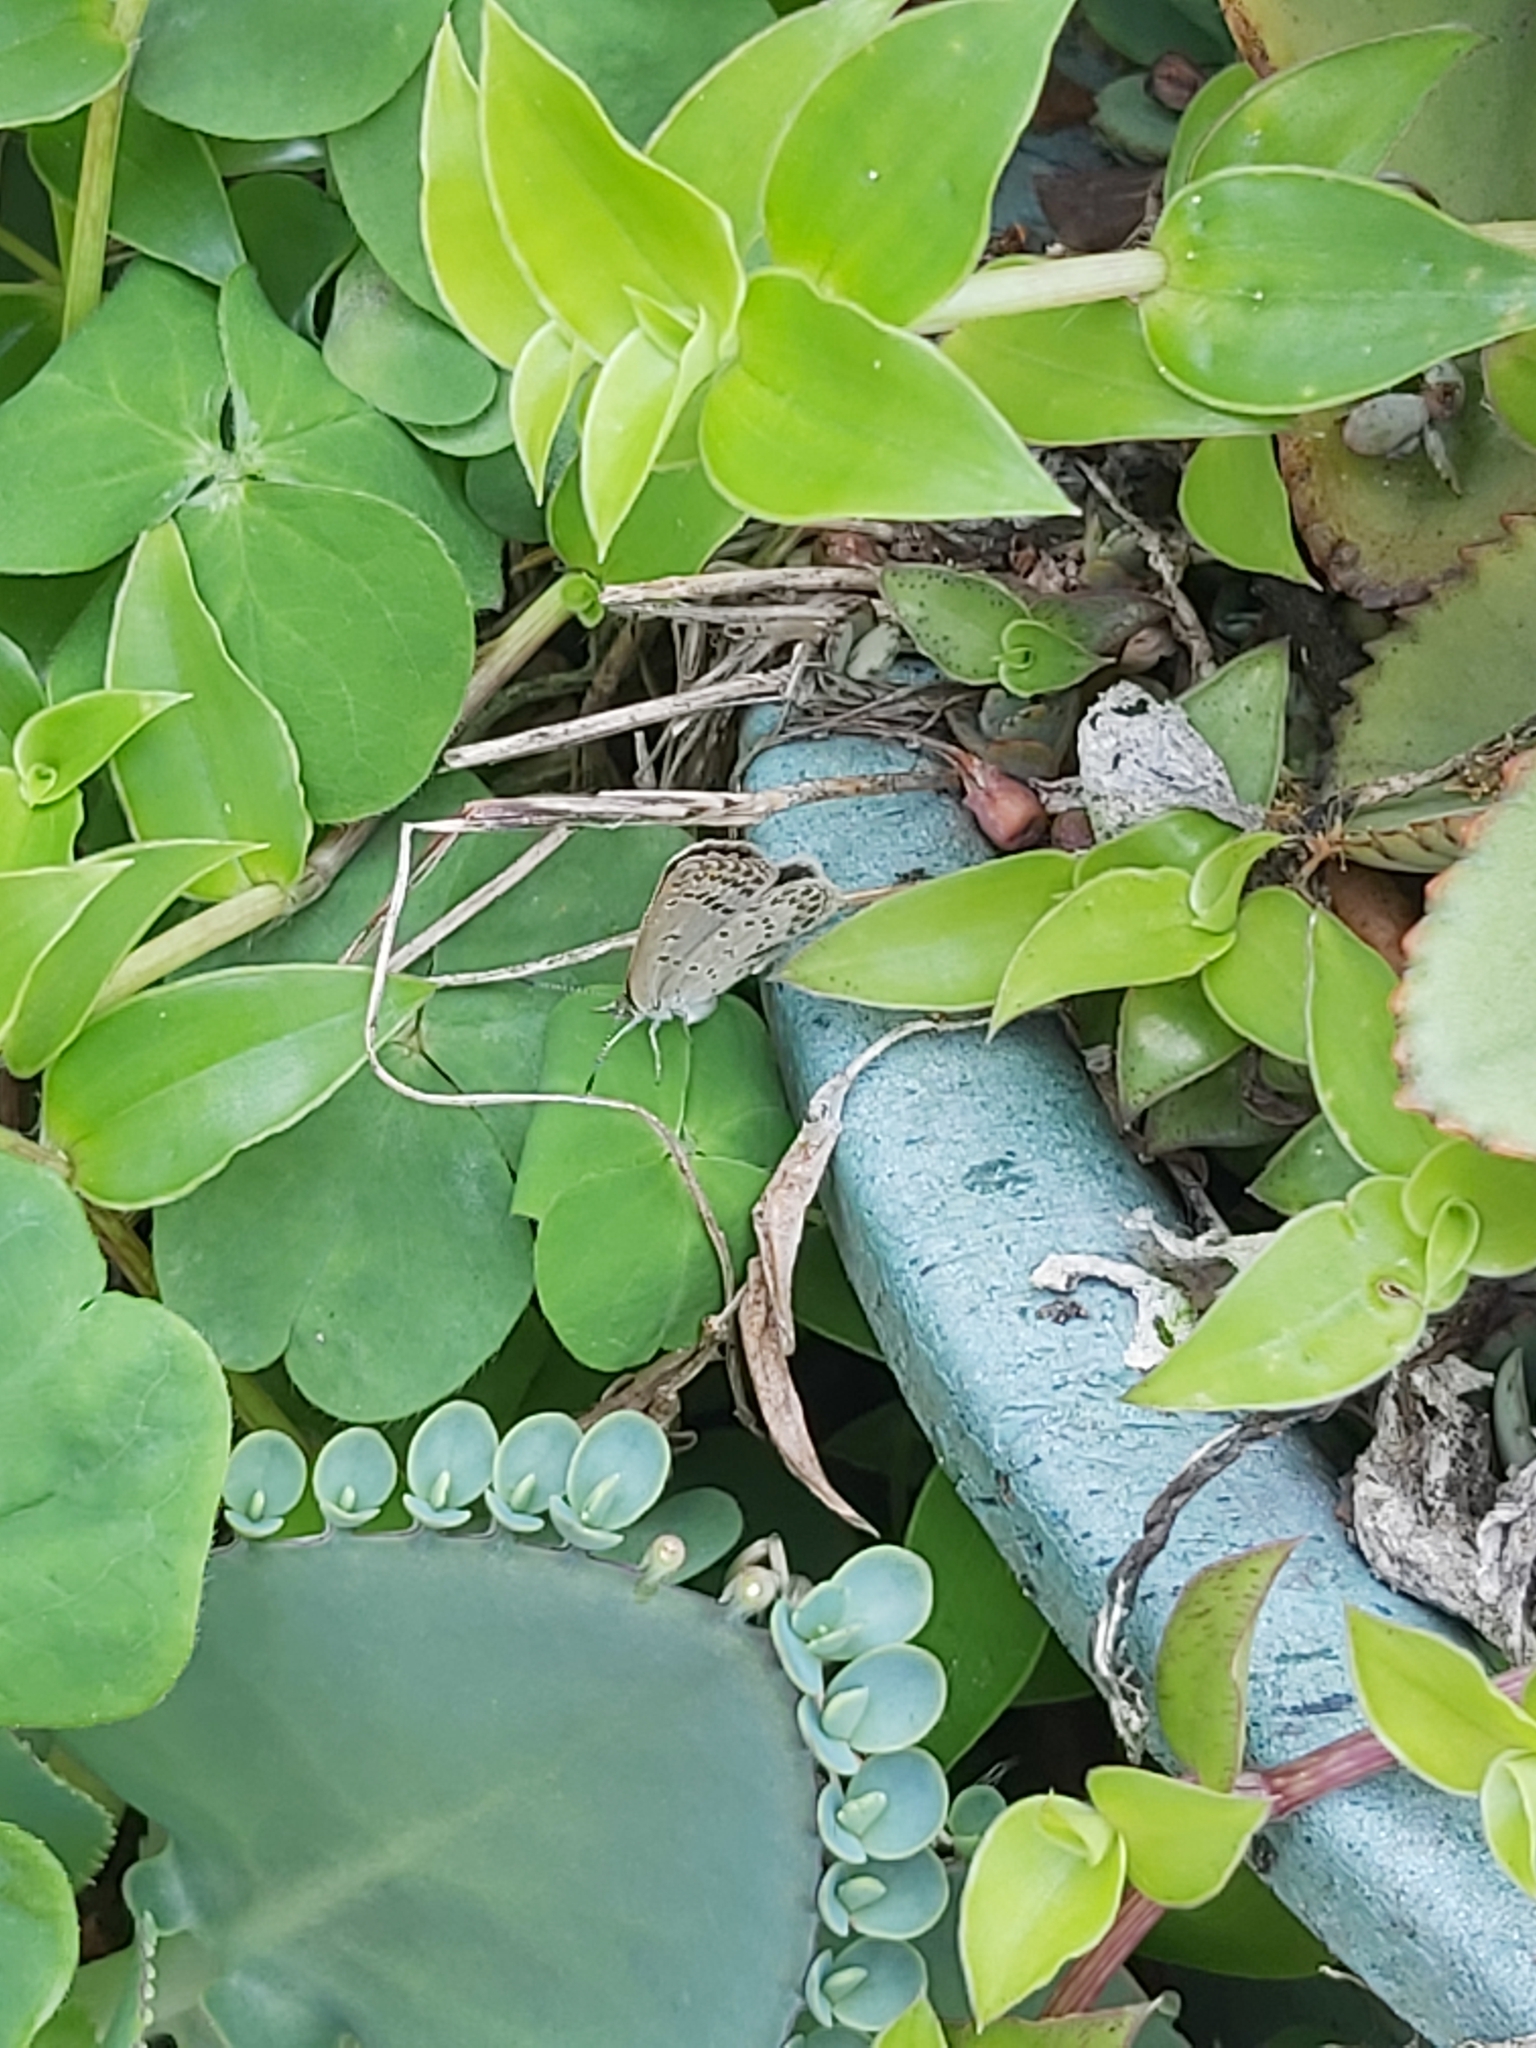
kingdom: Animalia
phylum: Arthropoda
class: Insecta
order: Lepidoptera
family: Lycaenidae
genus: Pseudozizeeria
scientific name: Pseudozizeeria maha
